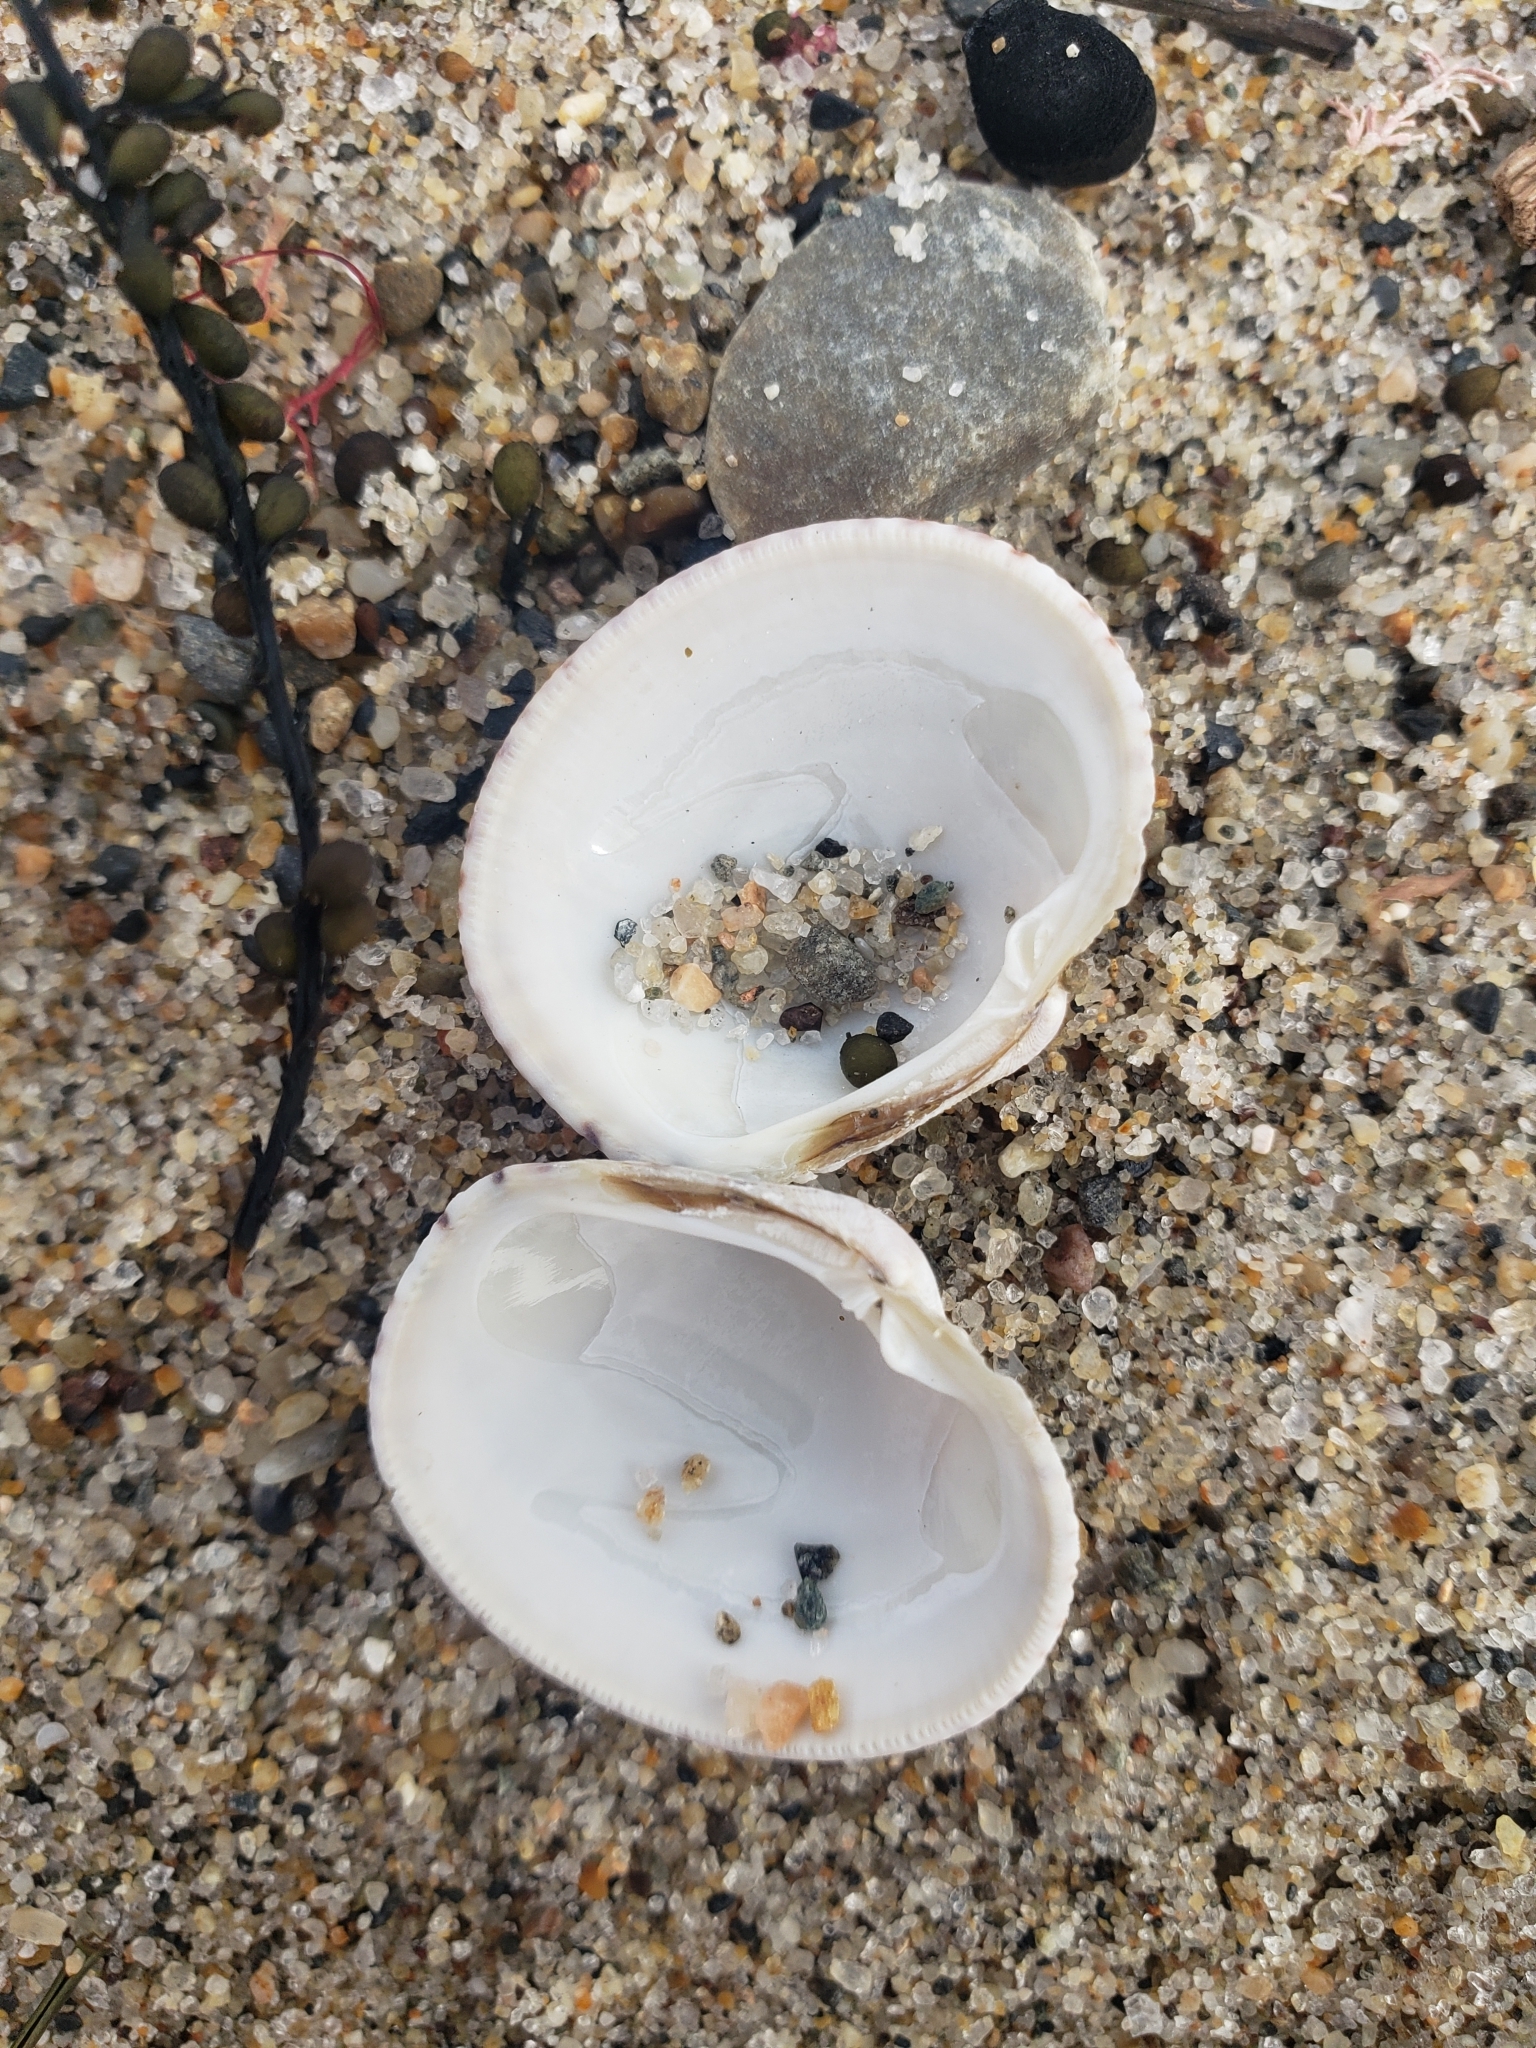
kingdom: Animalia
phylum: Mollusca
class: Bivalvia
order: Venerida
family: Veneridae
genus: Leukoma
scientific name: Leukoma staminea
